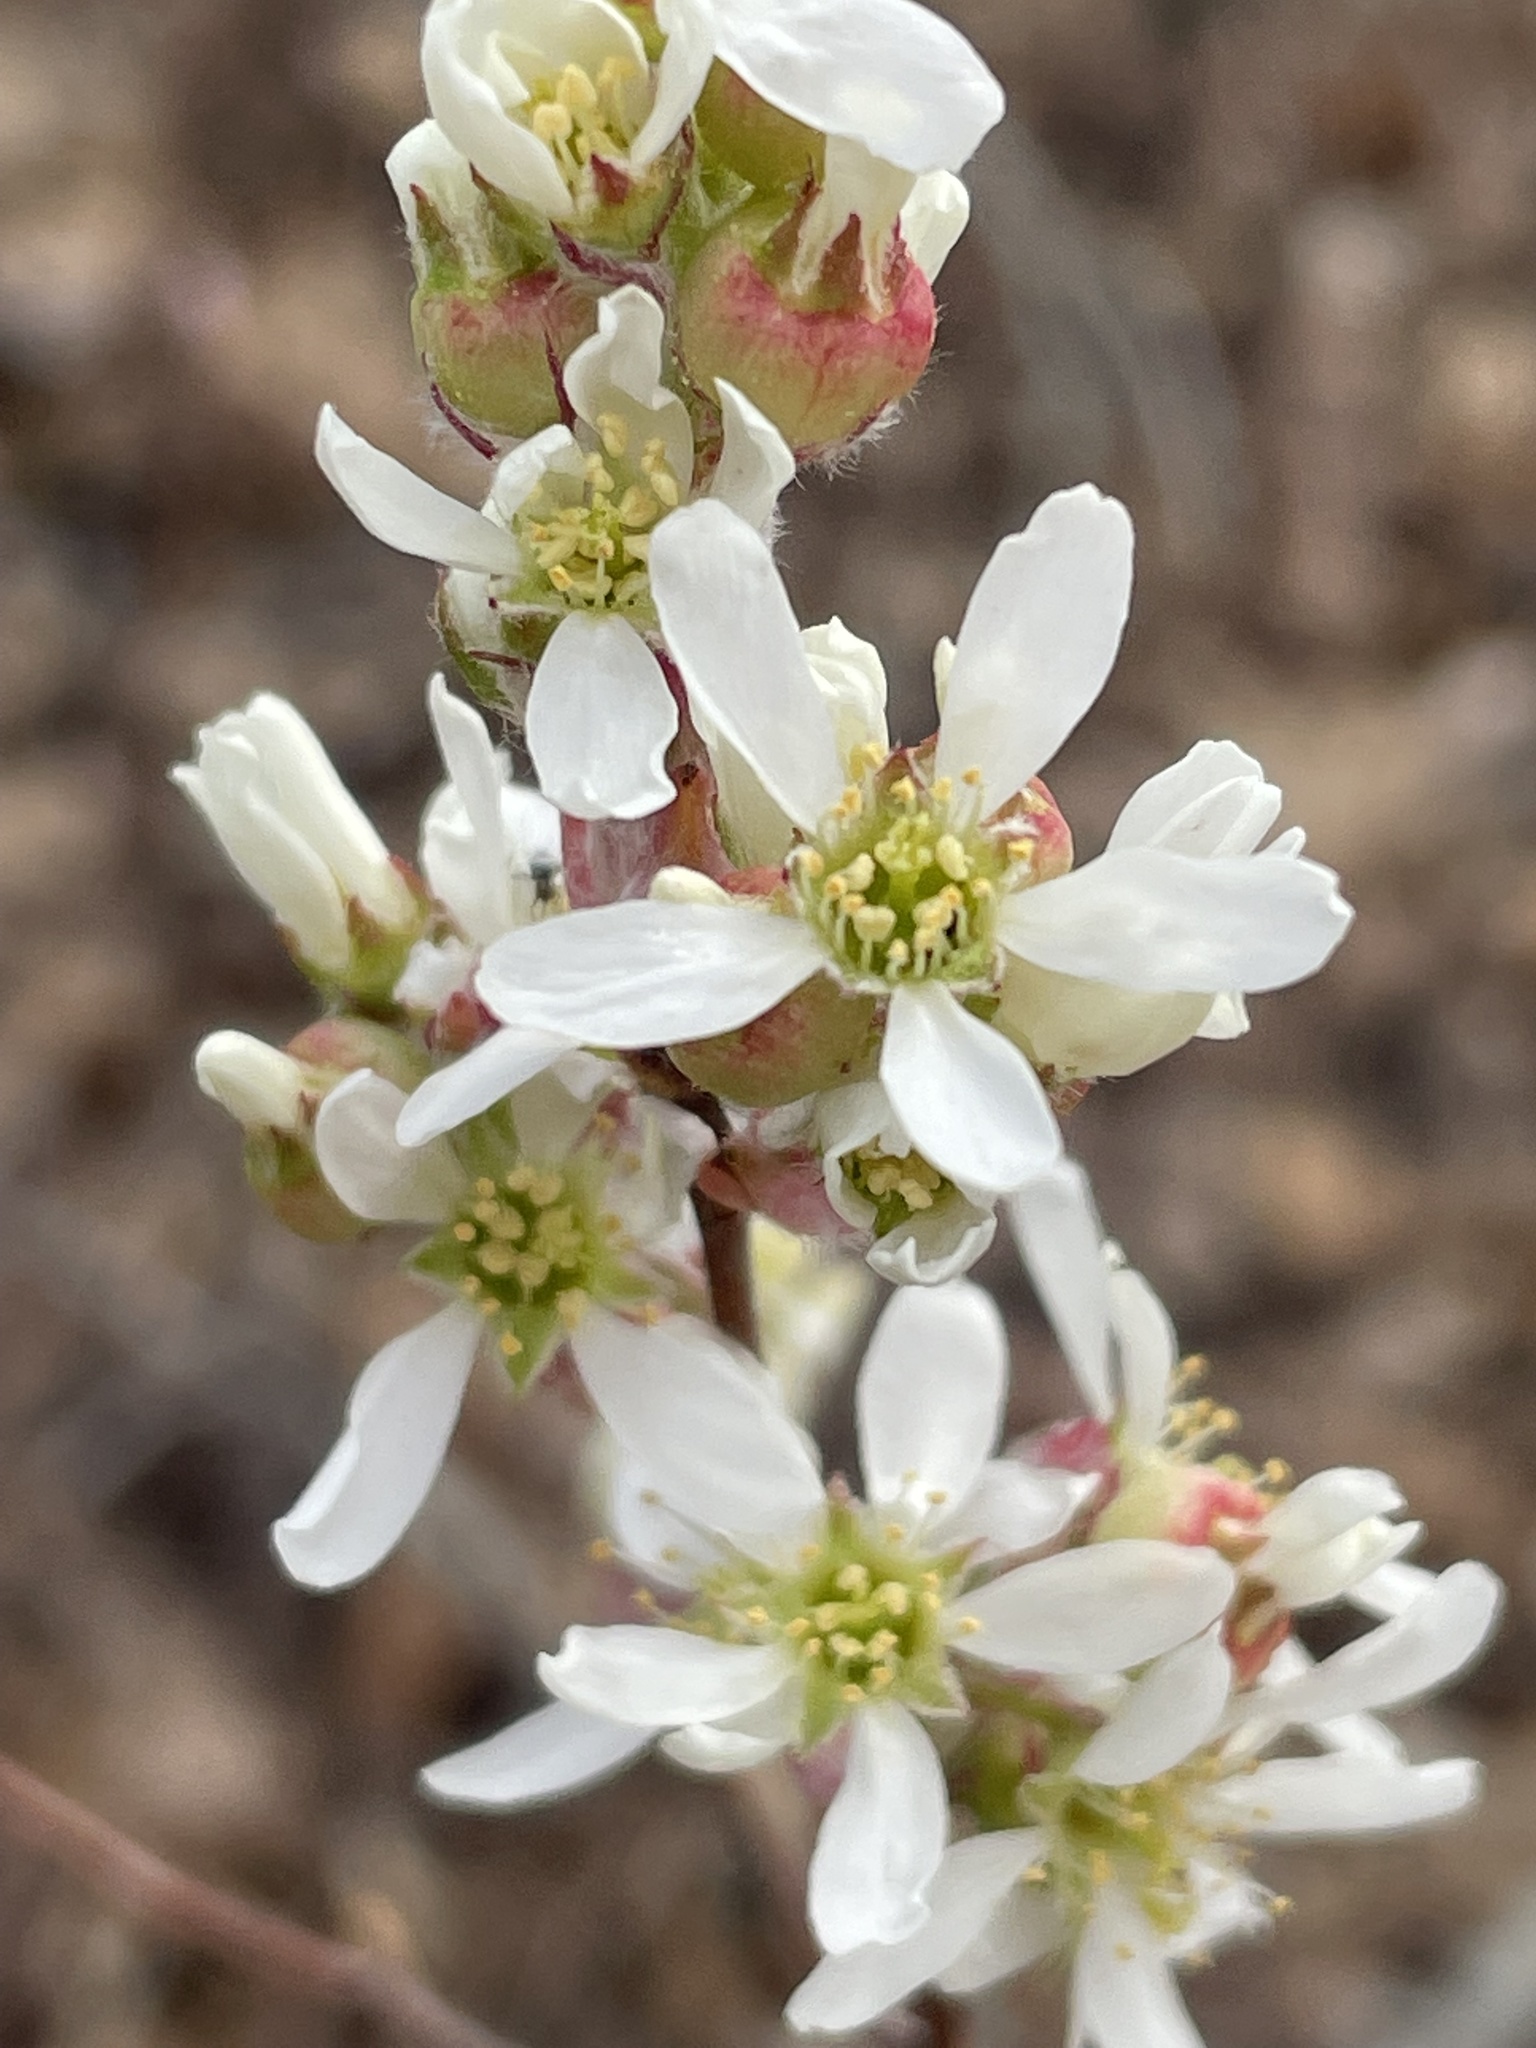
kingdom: Plantae
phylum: Tracheophyta
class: Magnoliopsida
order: Rosales
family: Rosaceae
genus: Amelanchier
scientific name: Amelanchier
